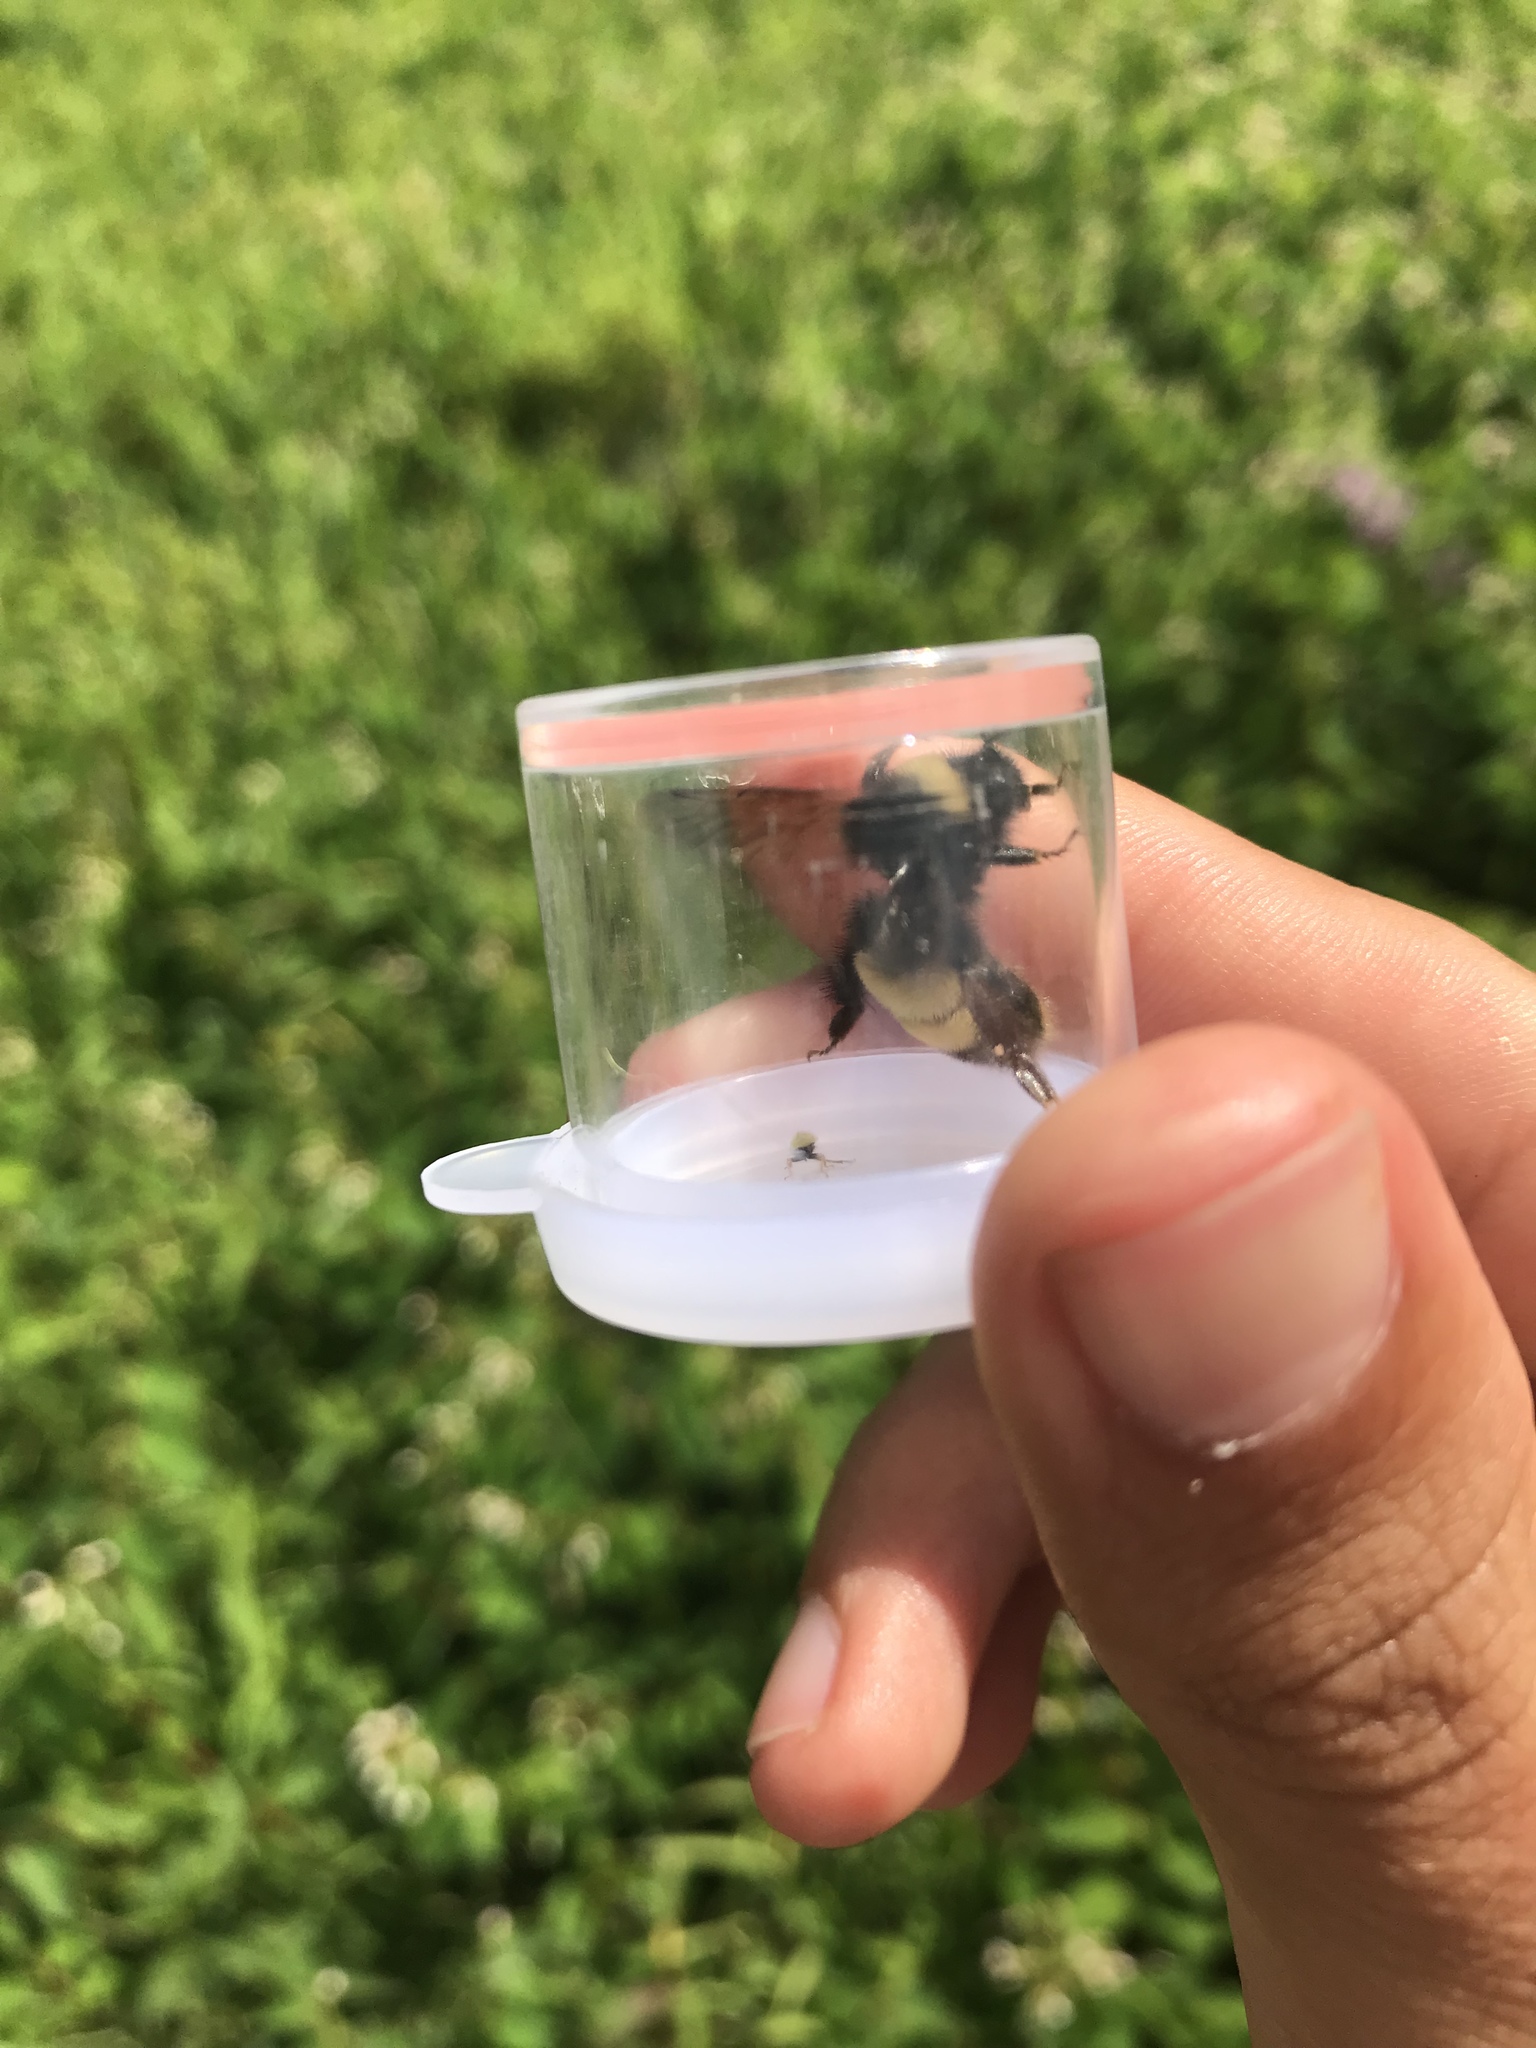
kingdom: Animalia
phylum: Arthropoda
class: Insecta
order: Hymenoptera
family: Apidae
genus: Bombus
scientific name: Bombus terricola
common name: Yellow-banded bumble bee
